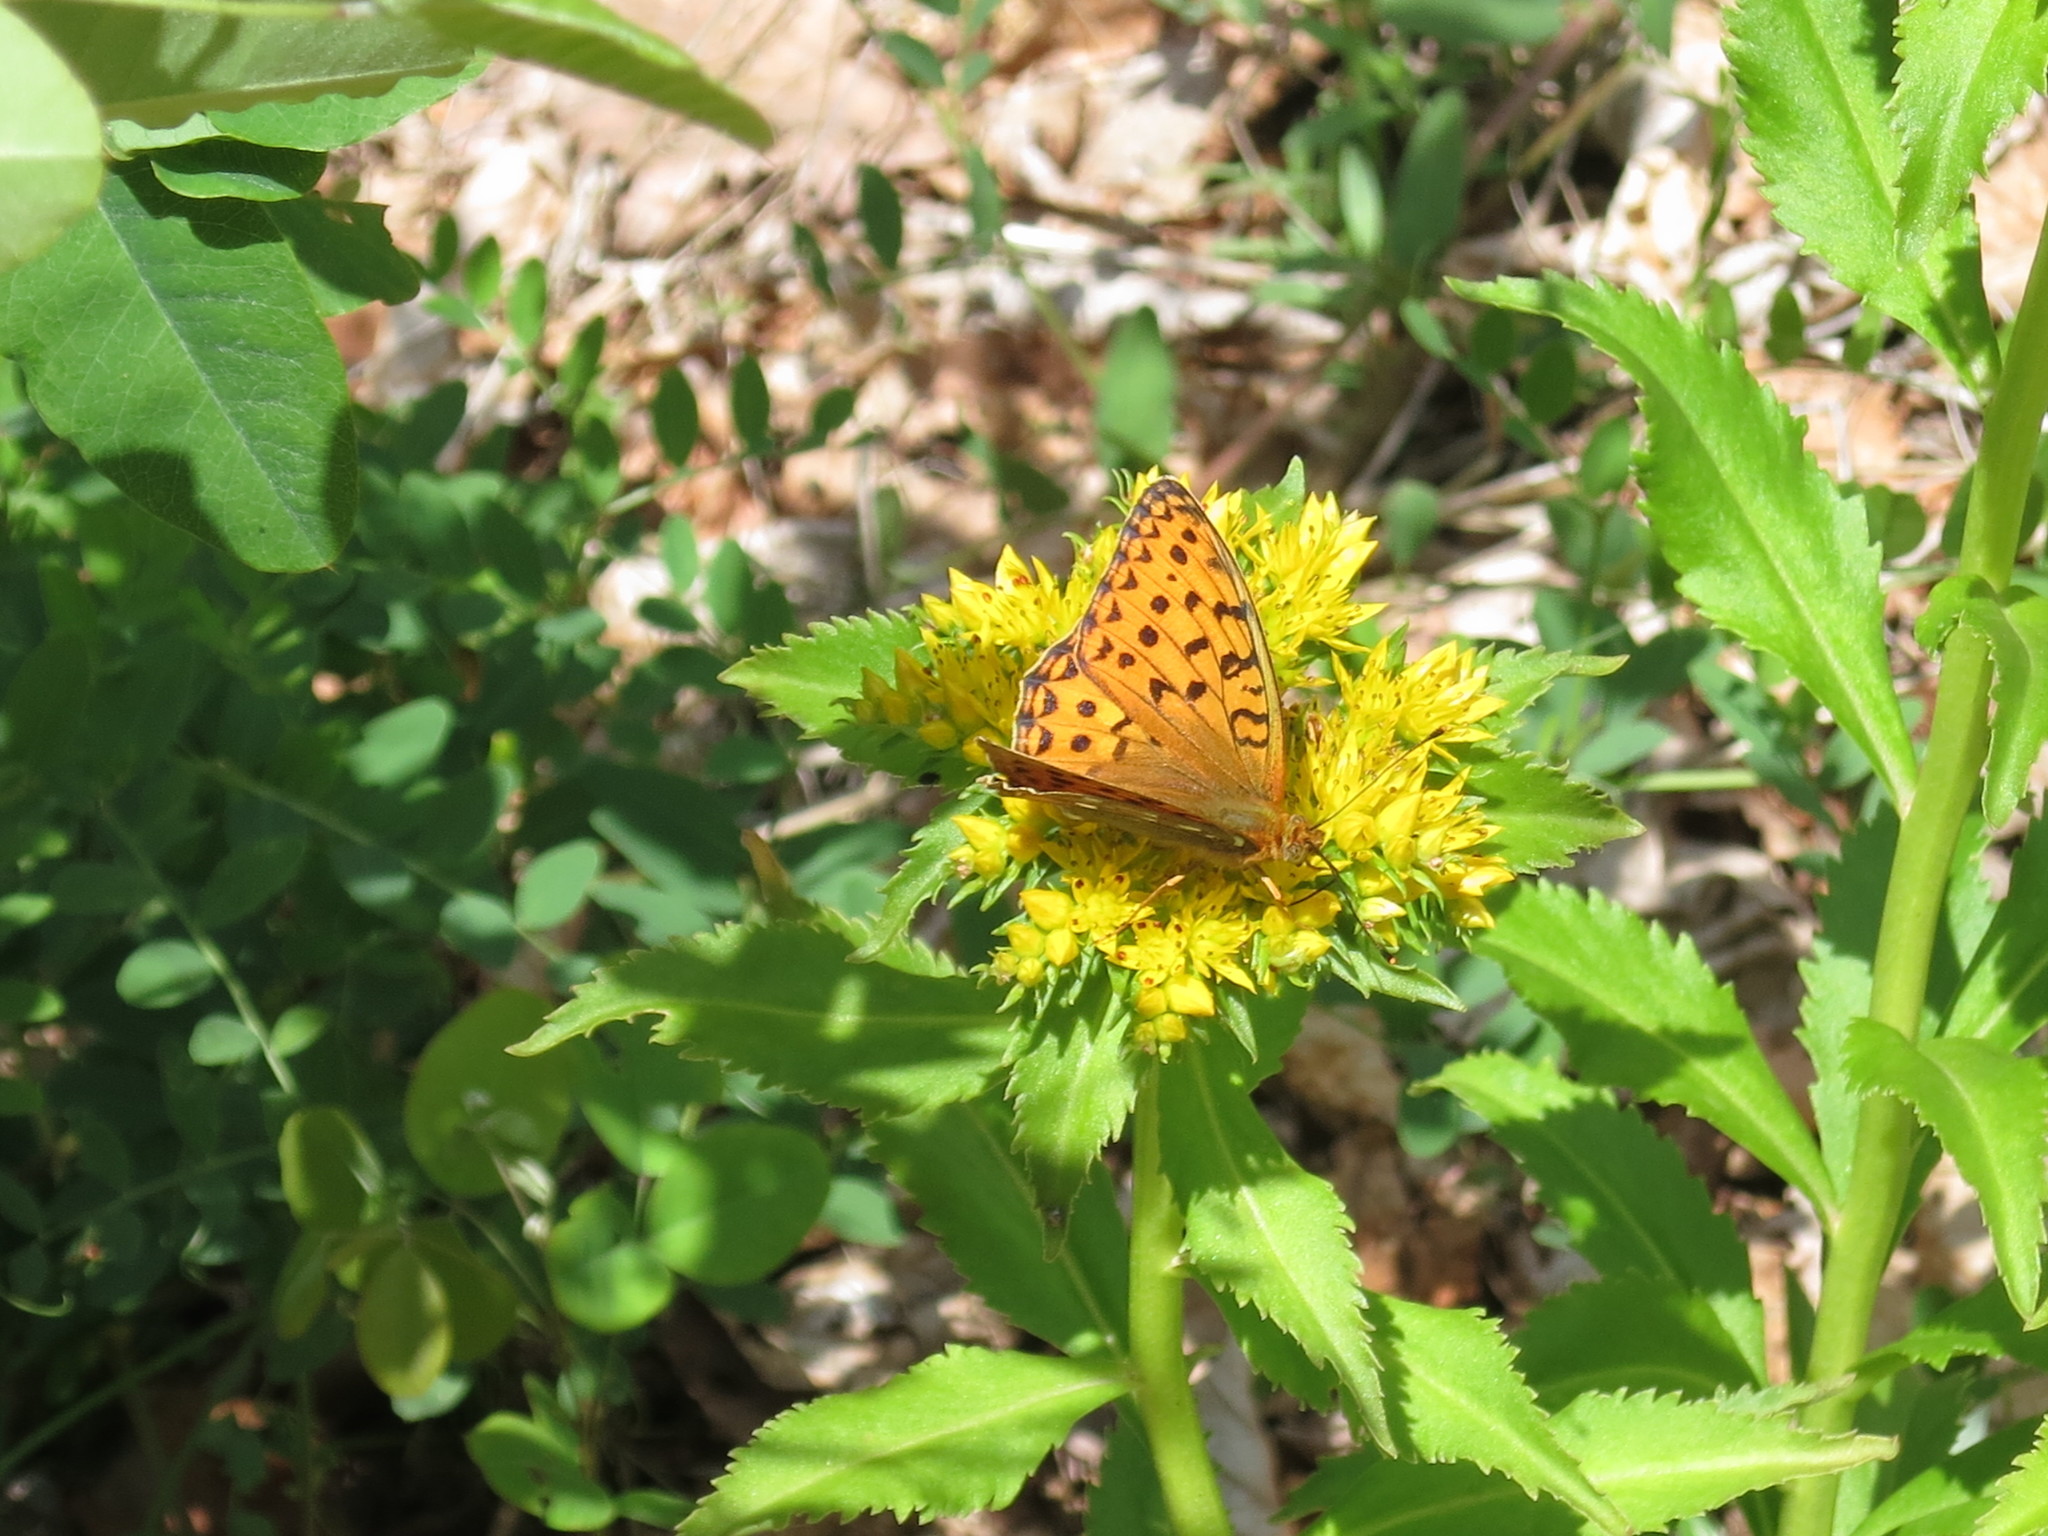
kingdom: Animalia
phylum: Arthropoda
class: Insecta
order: Lepidoptera
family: Nymphalidae
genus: Speyeria
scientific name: Speyeria aglaja
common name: Dark green fritillary
